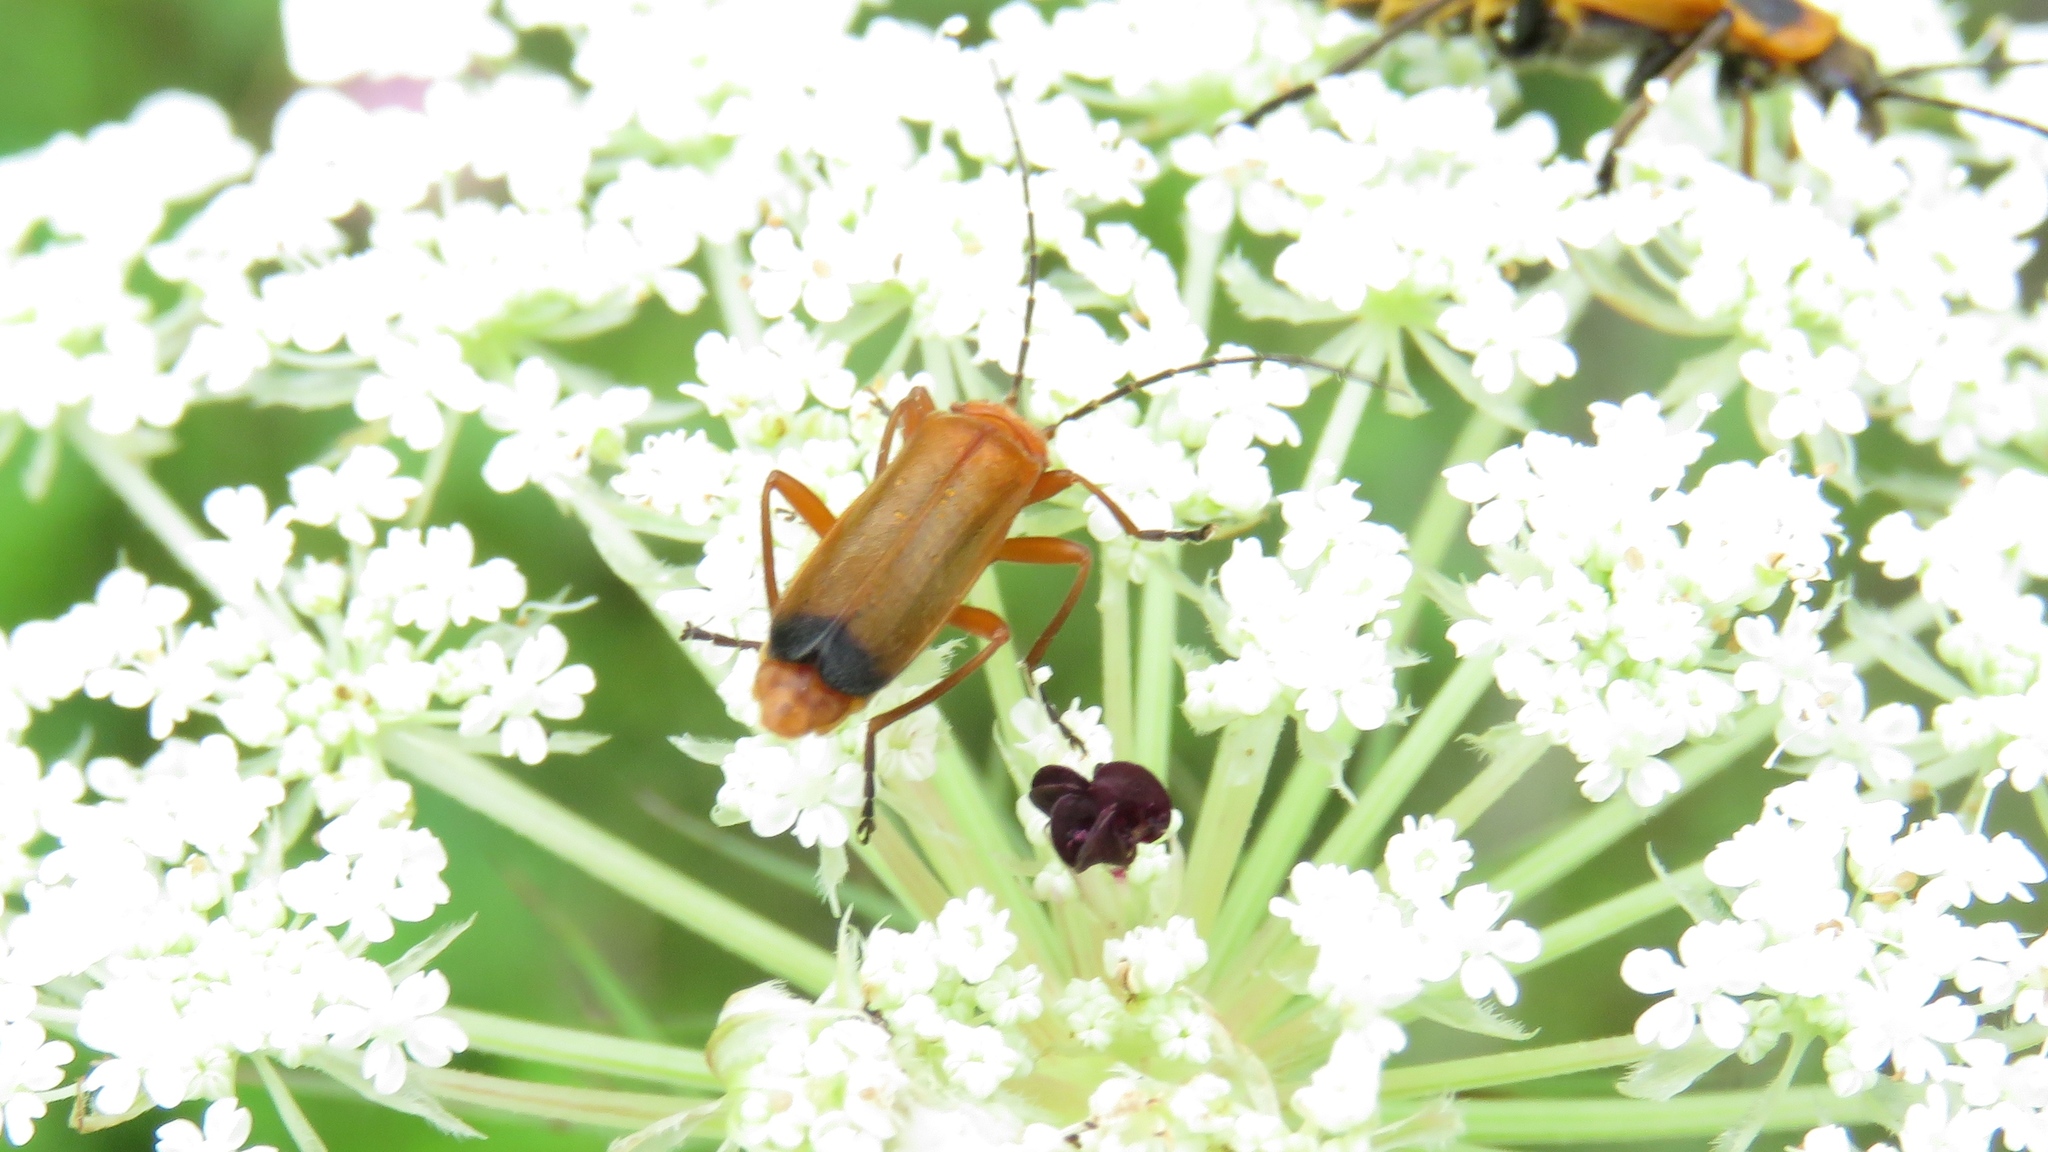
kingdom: Animalia
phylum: Arthropoda
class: Insecta
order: Coleoptera
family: Cantharidae
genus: Rhagonycha
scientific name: Rhagonycha fulva
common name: Common red soldier beetle
